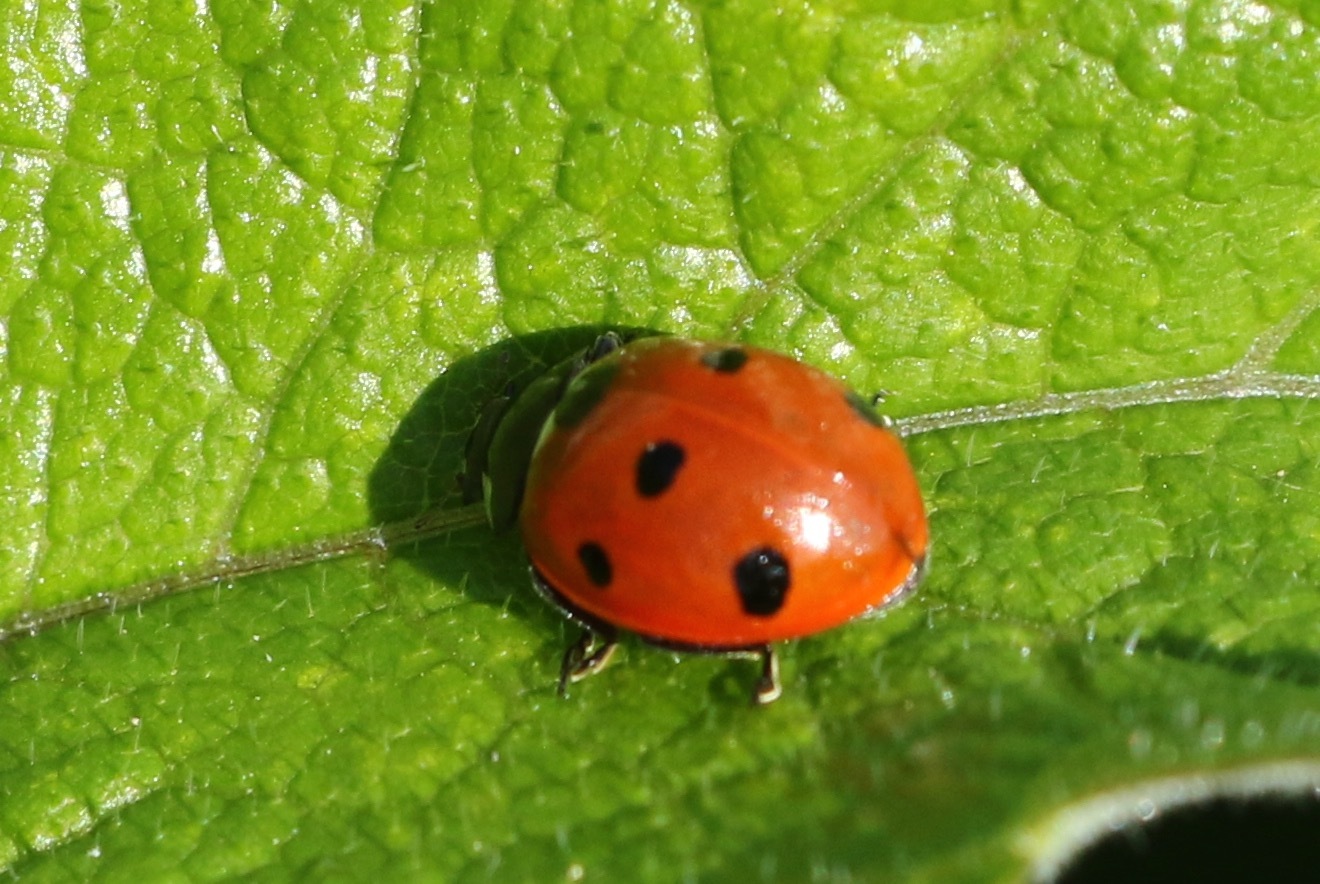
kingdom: Animalia
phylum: Arthropoda
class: Insecta
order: Coleoptera
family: Coccinellidae
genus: Coccinella
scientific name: Coccinella septempunctata
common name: Sevenspotted lady beetle
